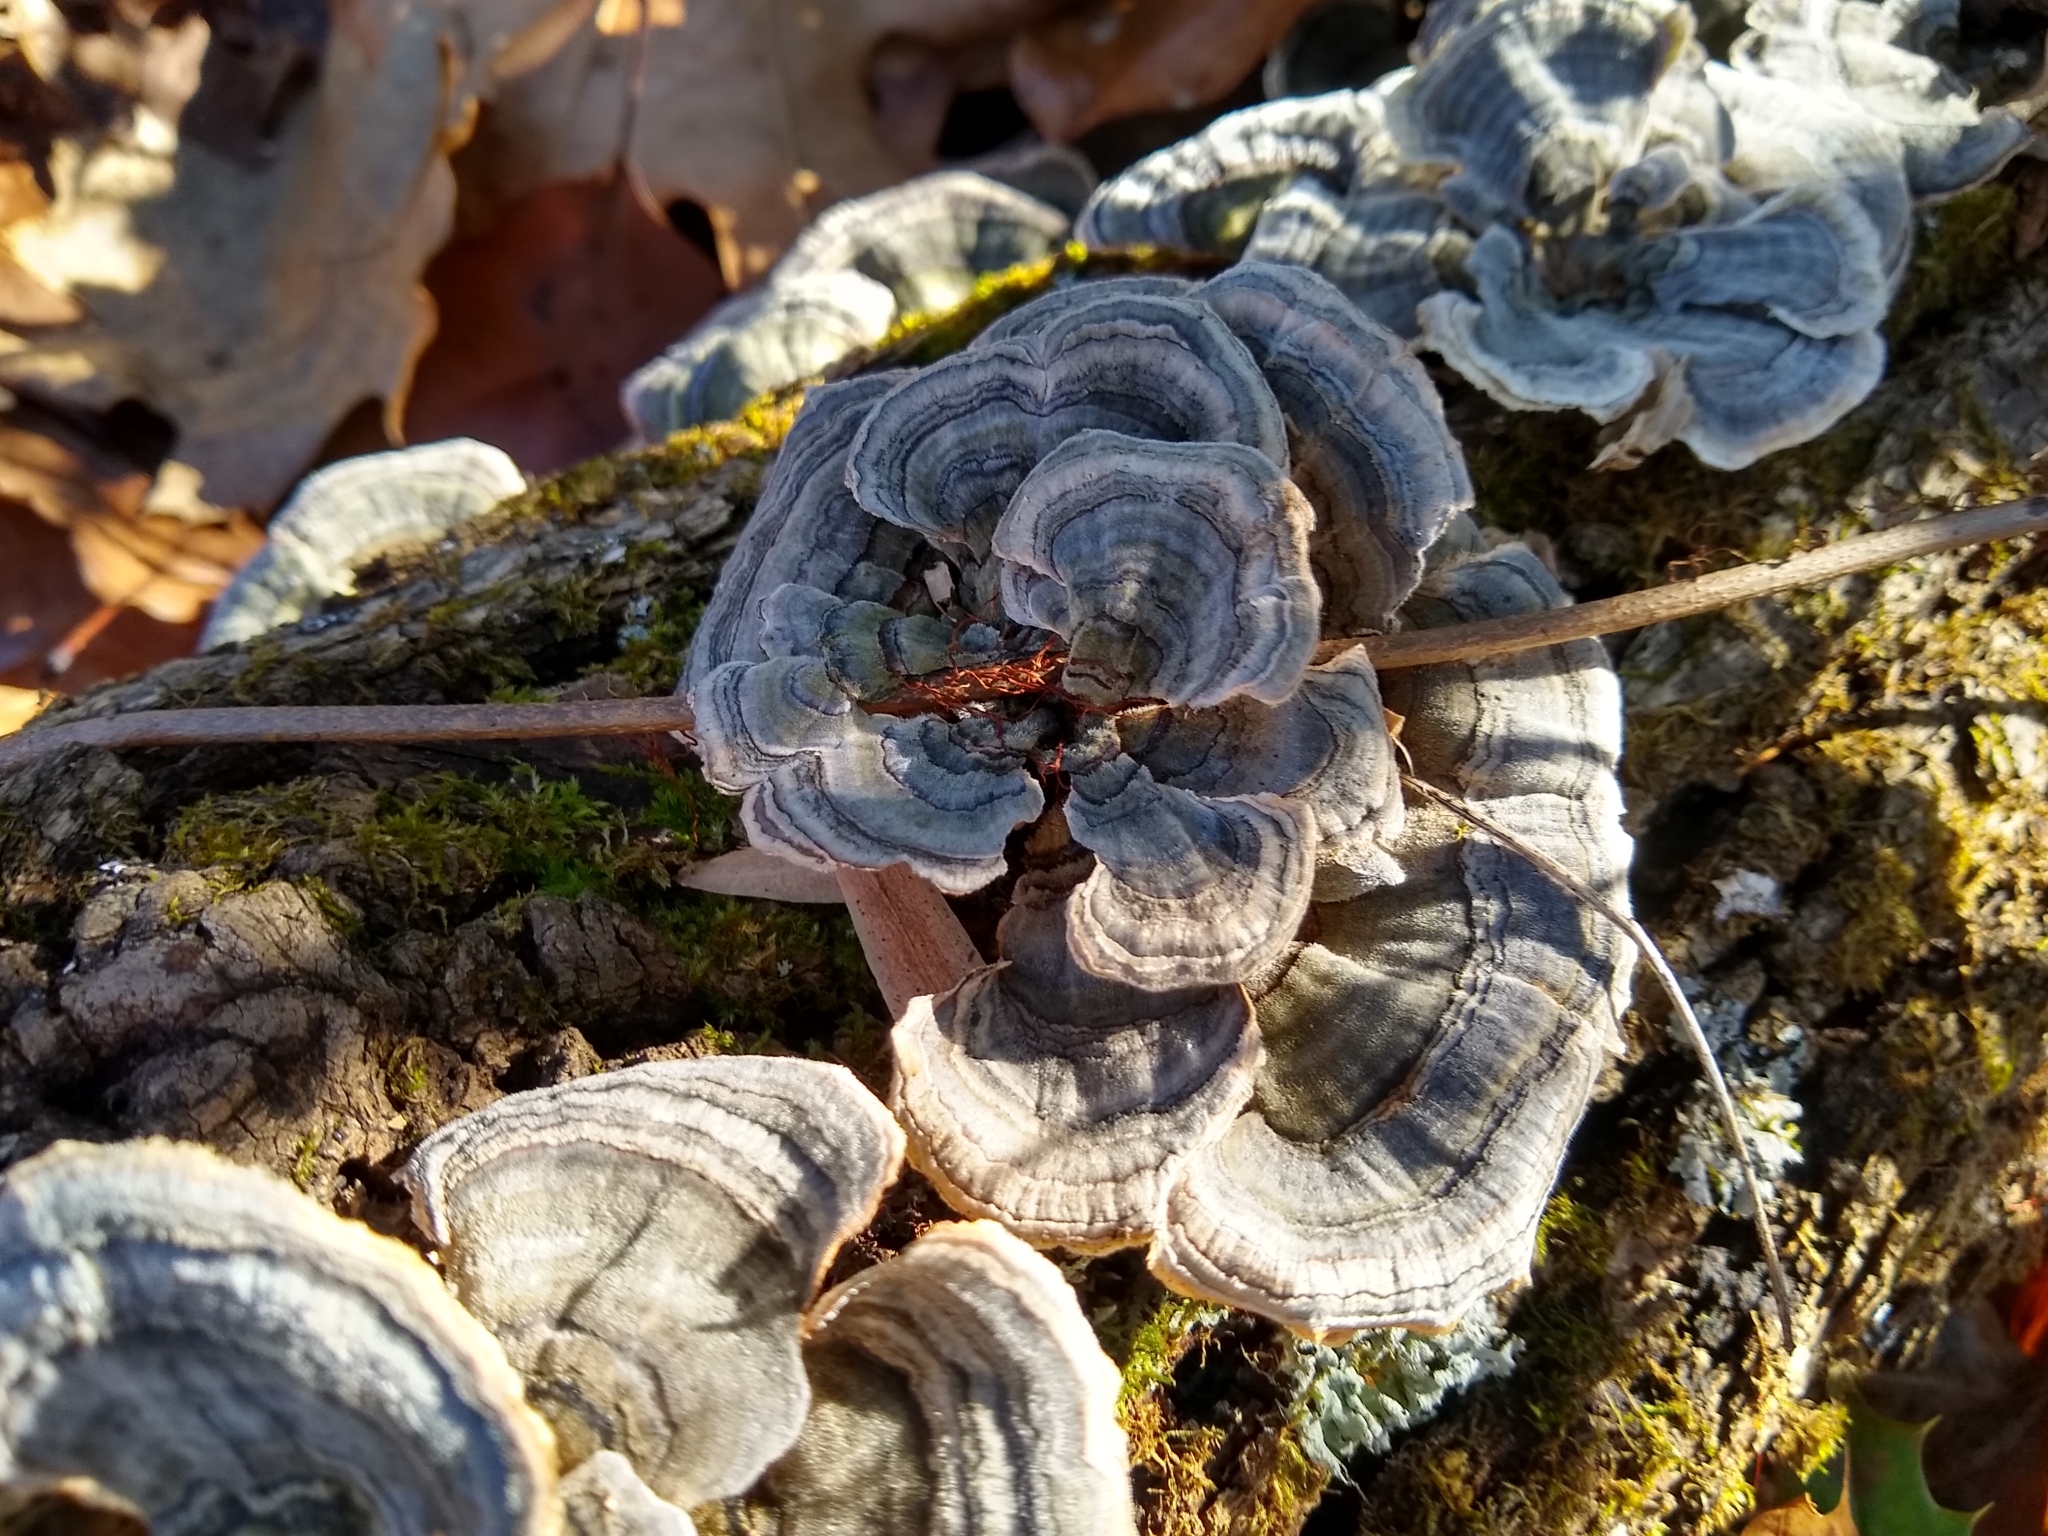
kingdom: Fungi
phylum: Basidiomycota
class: Agaricomycetes
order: Polyporales
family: Polyporaceae
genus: Trametes
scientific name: Trametes versicolor
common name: Turkeytail
